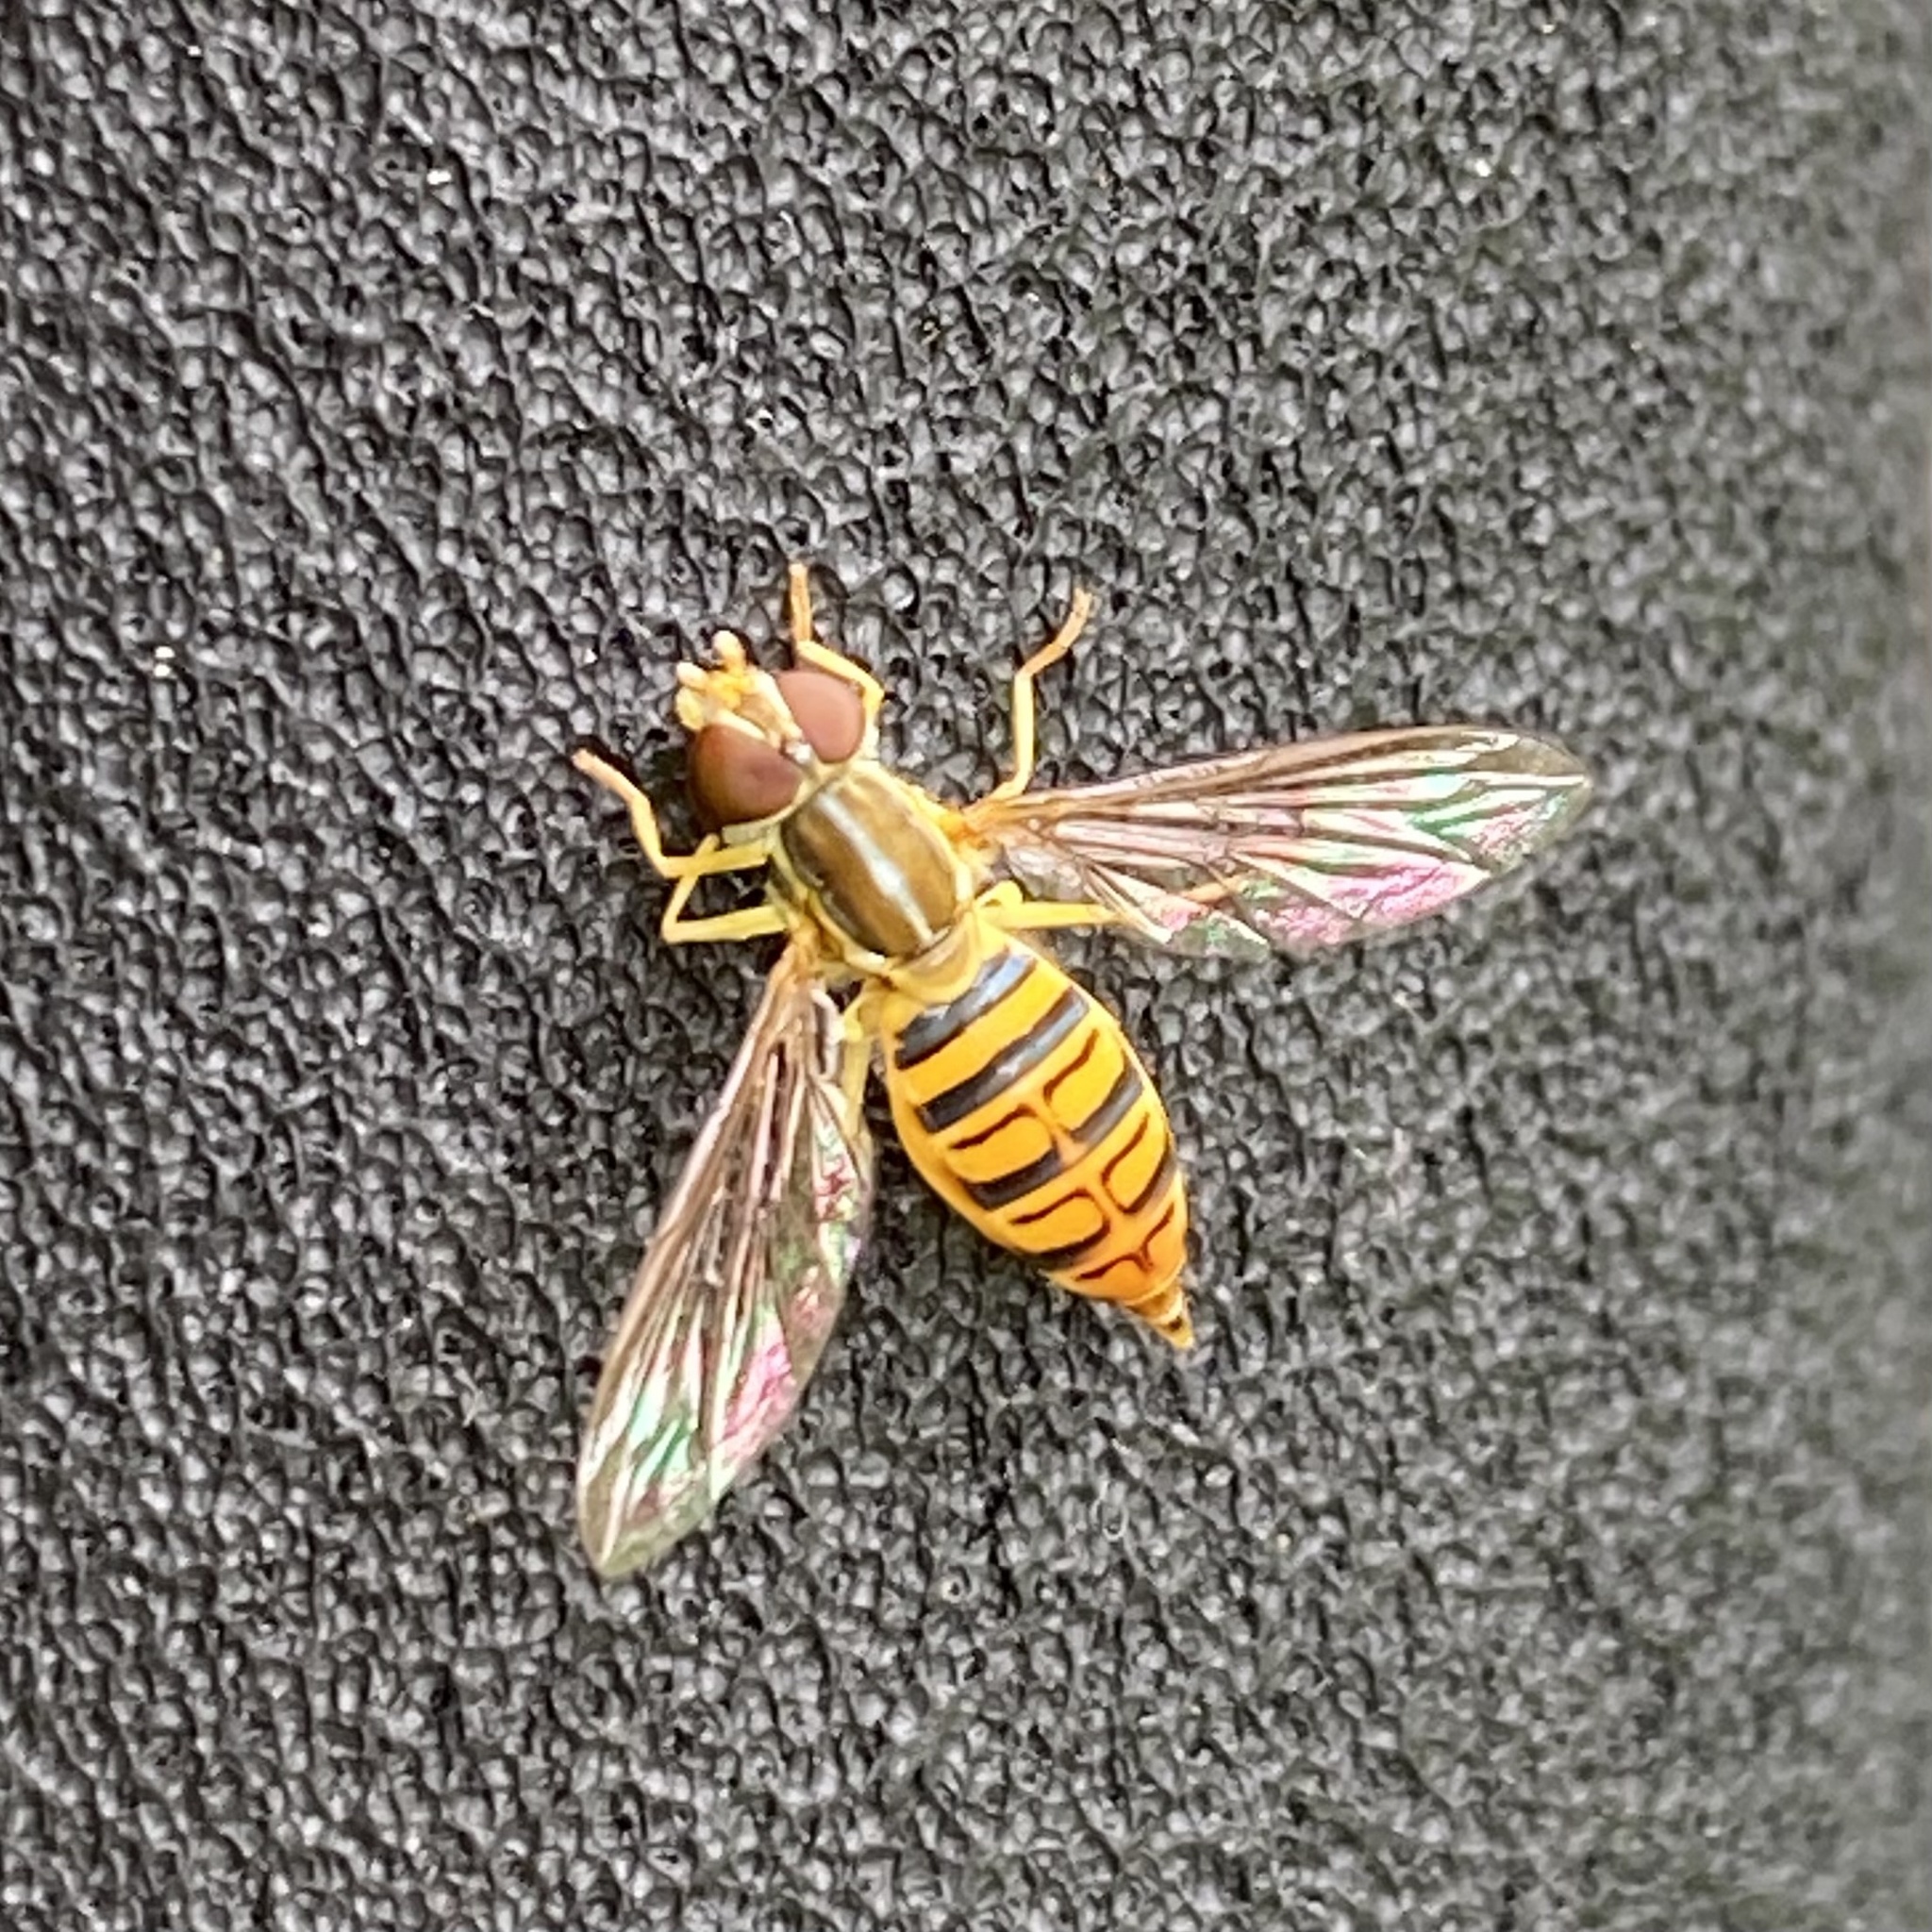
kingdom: Animalia
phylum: Arthropoda
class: Insecta
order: Diptera
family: Syrphidae
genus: Toxomerus
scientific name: Toxomerus politus
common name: Maize calligrapher
